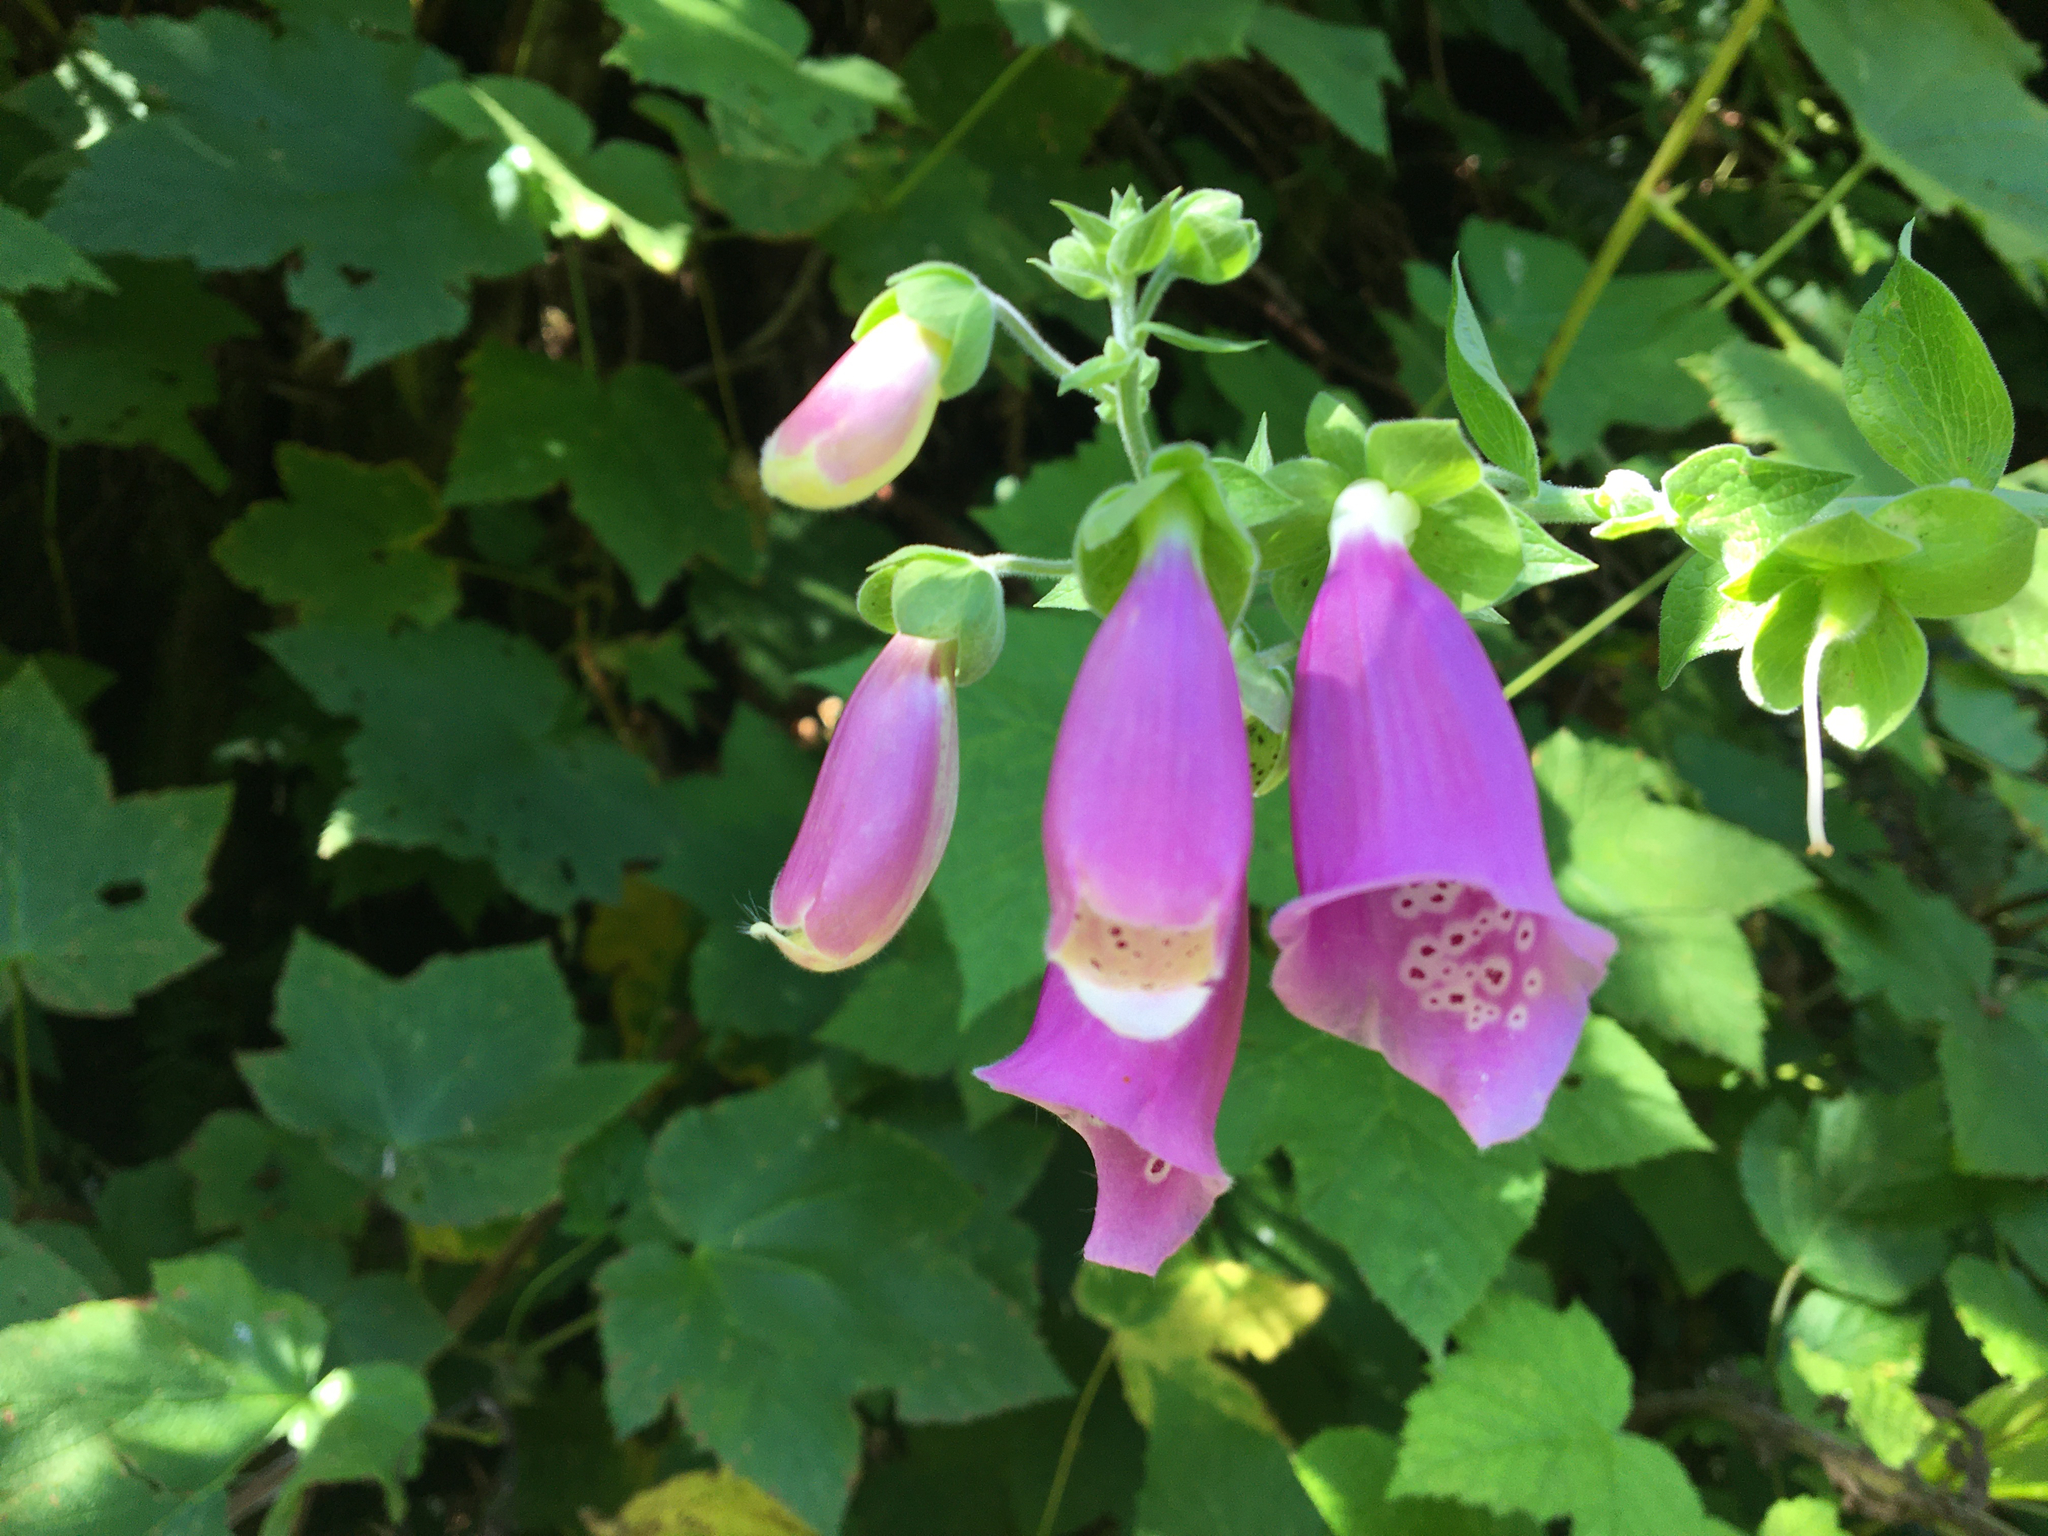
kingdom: Plantae
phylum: Tracheophyta
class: Magnoliopsida
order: Lamiales
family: Plantaginaceae
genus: Digitalis
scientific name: Digitalis purpurea
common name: Foxglove
